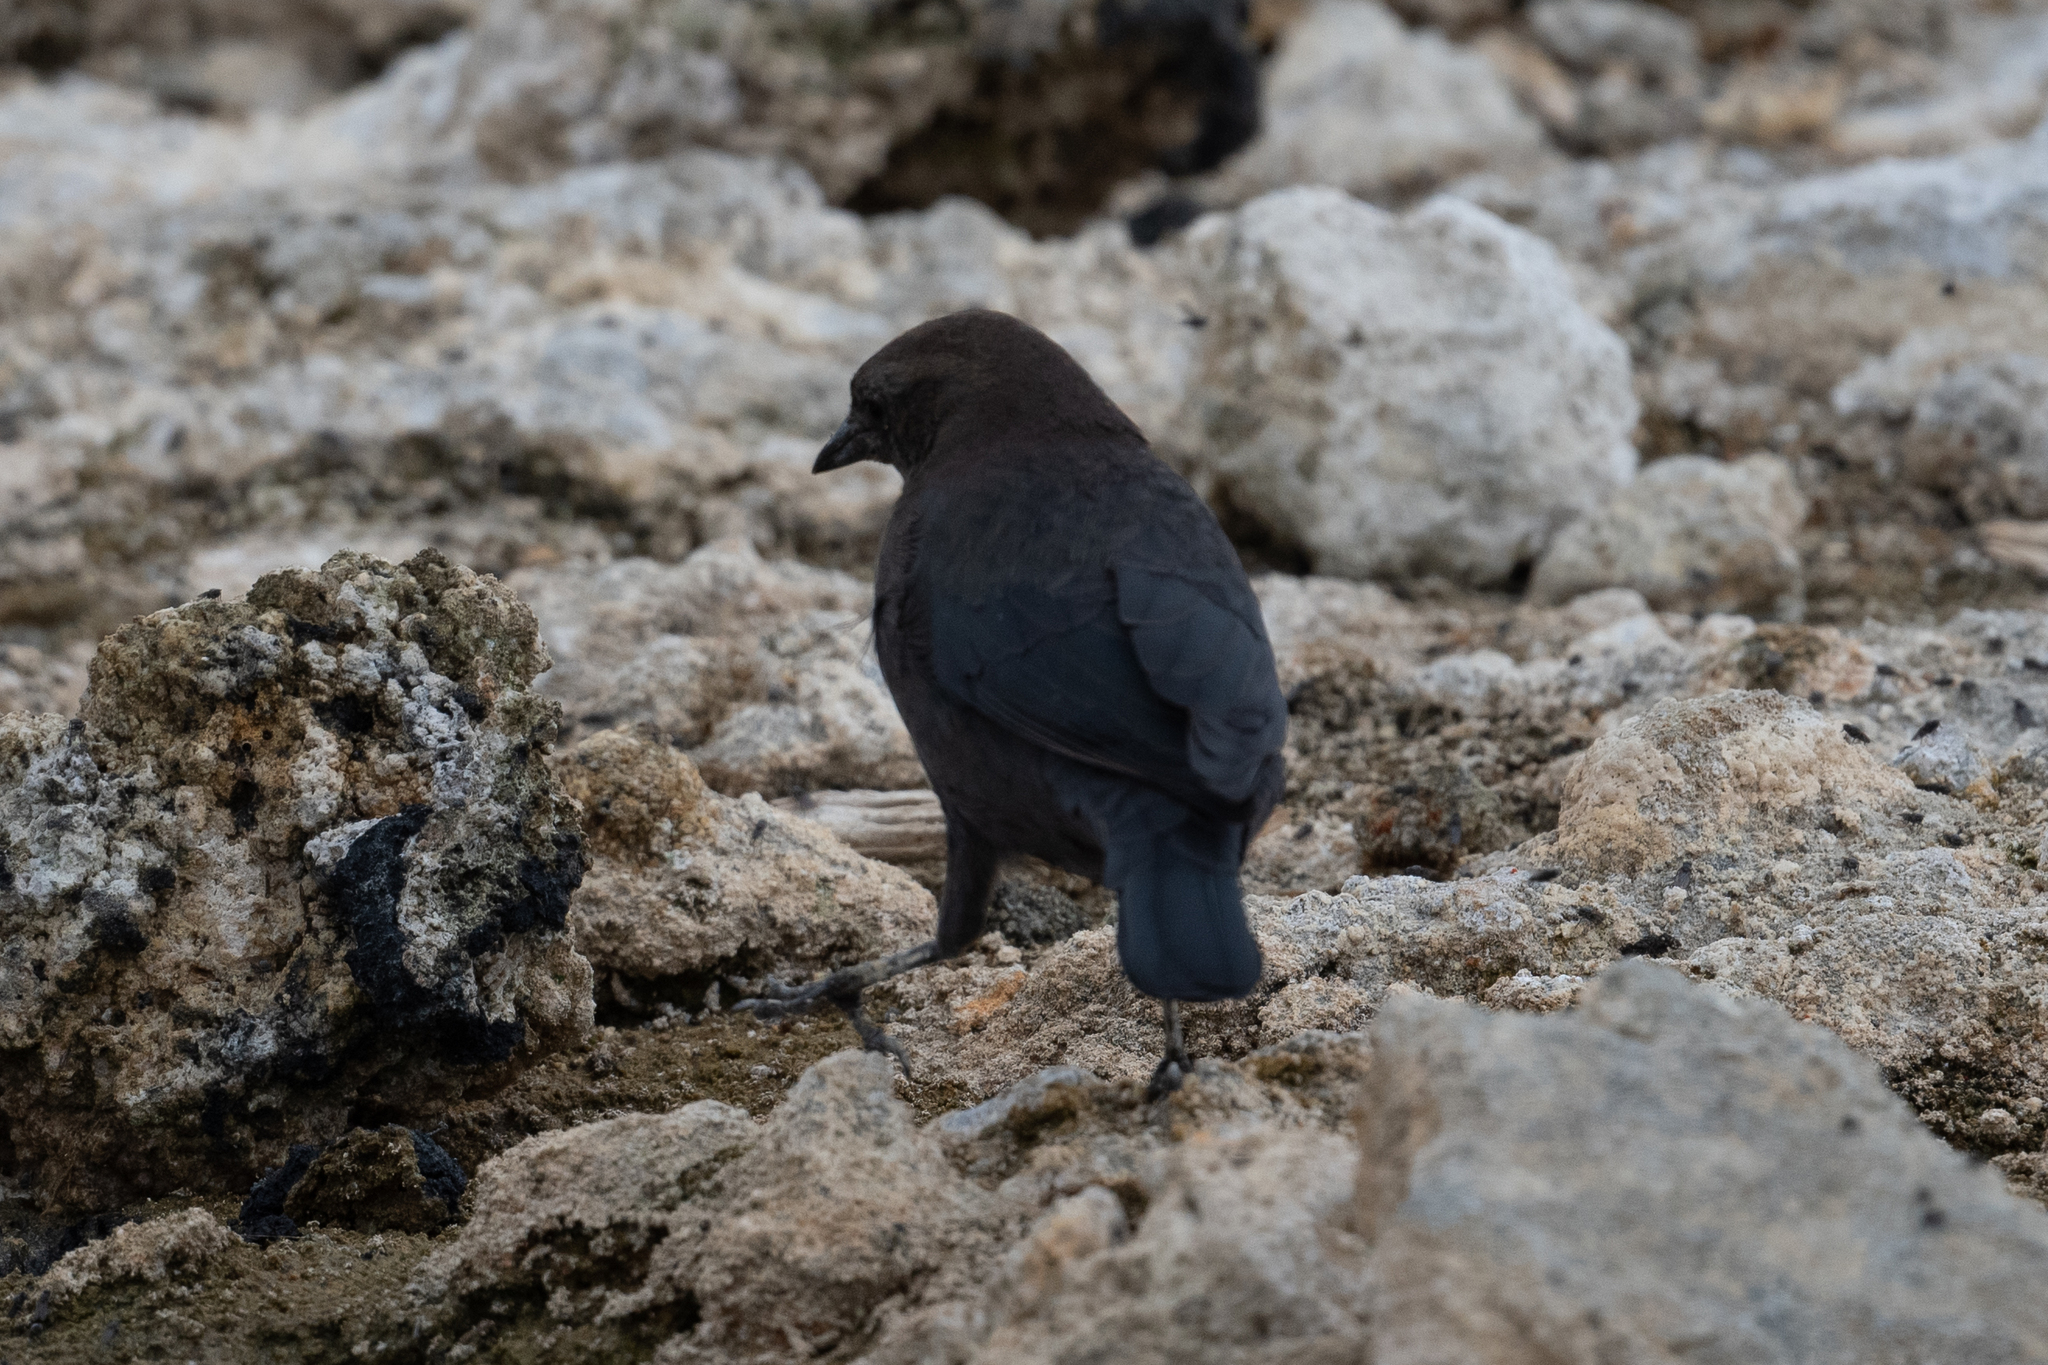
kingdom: Animalia
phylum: Chordata
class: Aves
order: Passeriformes
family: Icteridae
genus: Euphagus
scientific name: Euphagus cyanocephalus
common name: Brewer's blackbird
